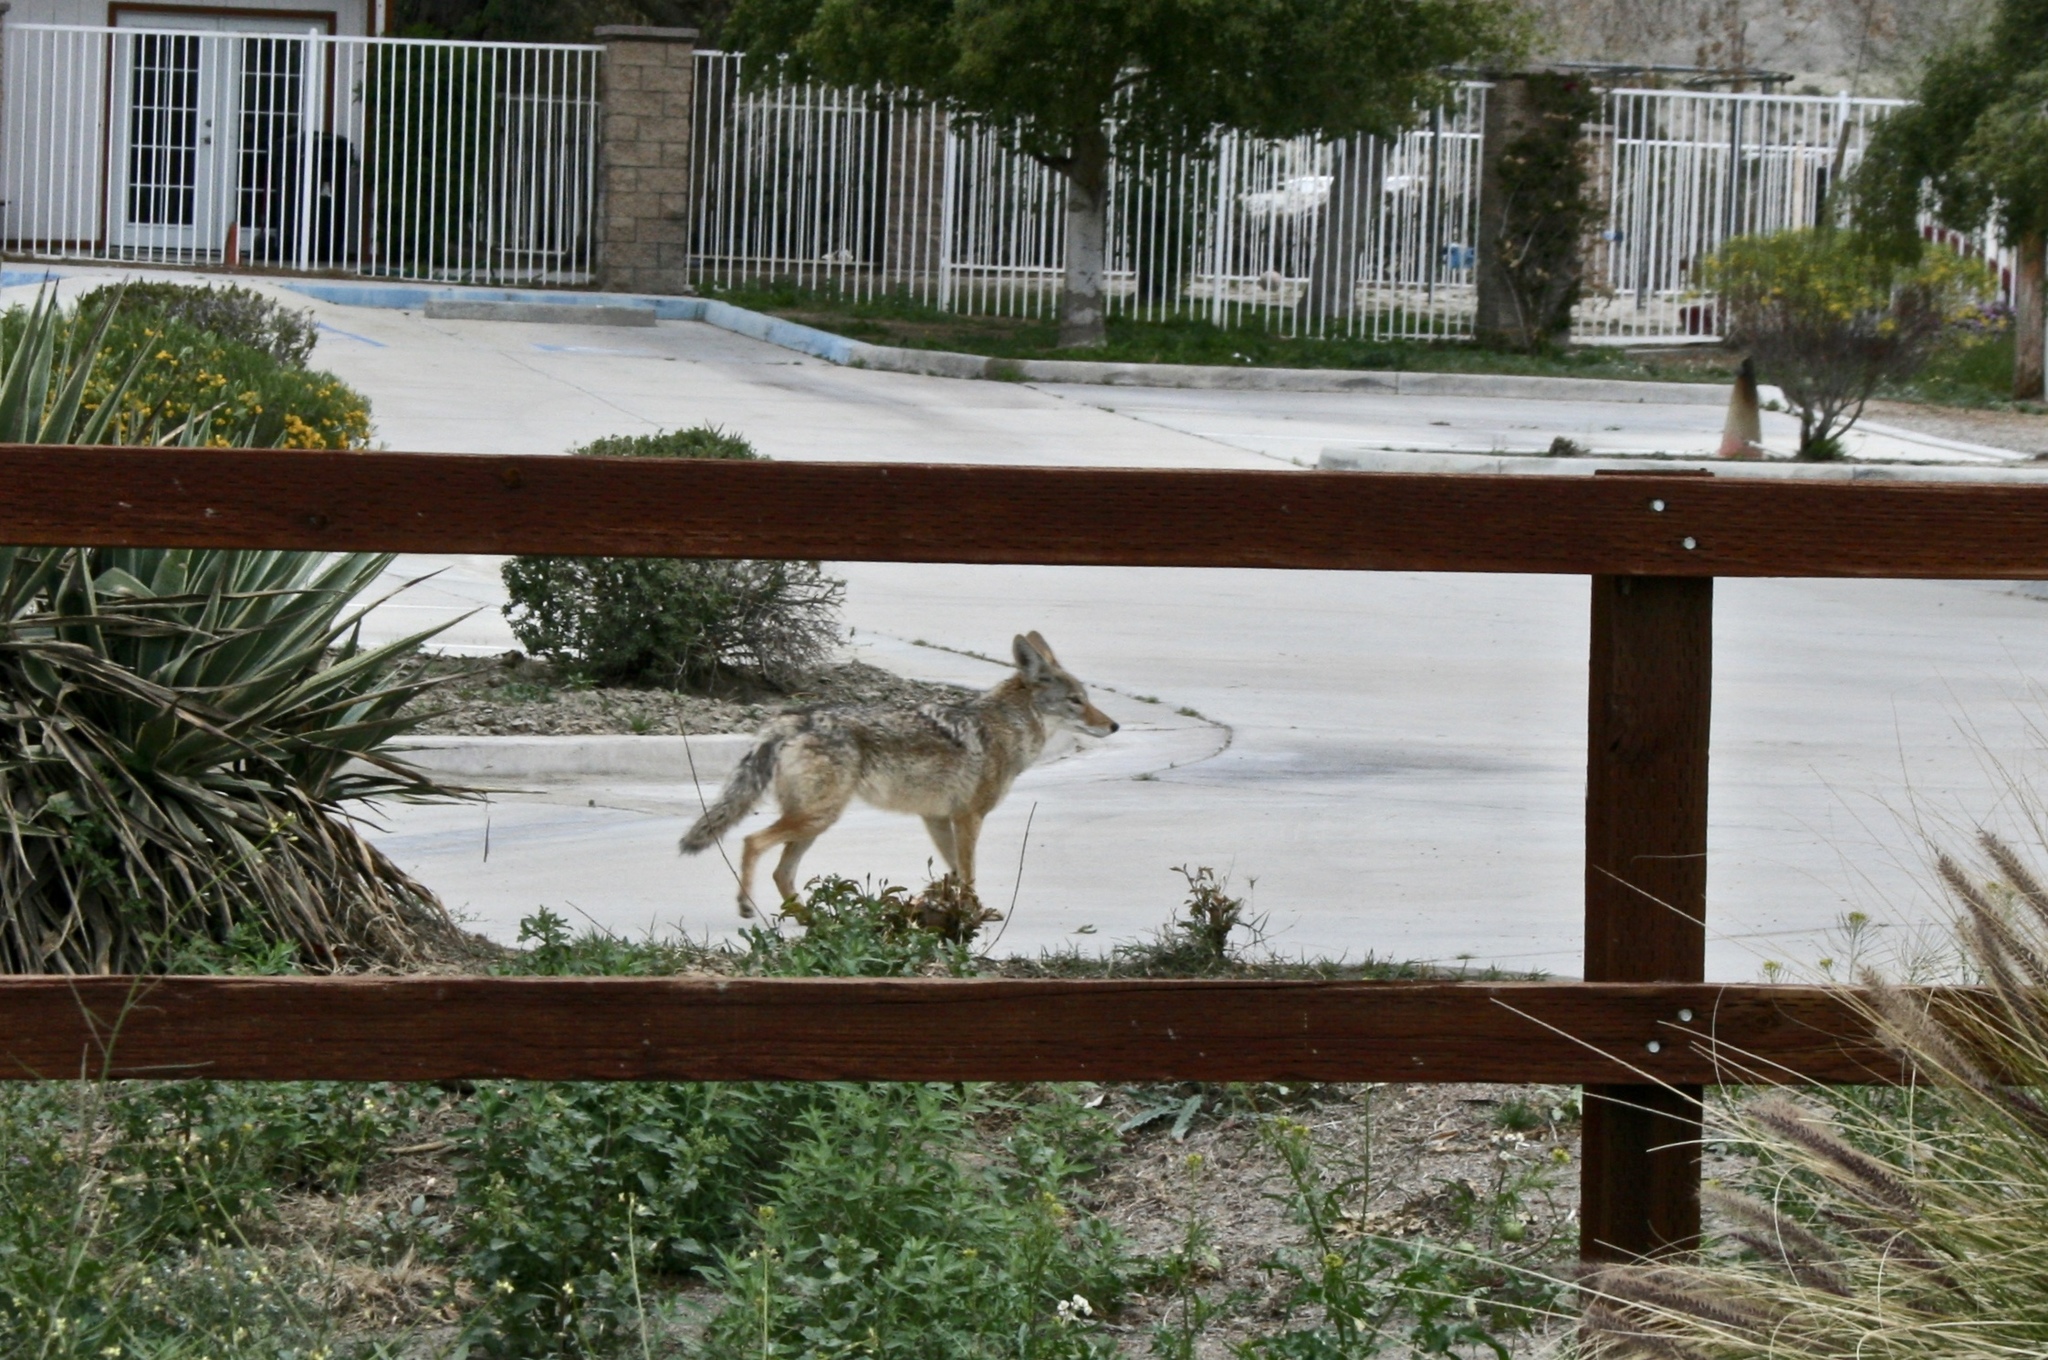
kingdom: Animalia
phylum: Chordata
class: Mammalia
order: Carnivora
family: Canidae
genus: Canis
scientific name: Canis latrans
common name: Coyote
